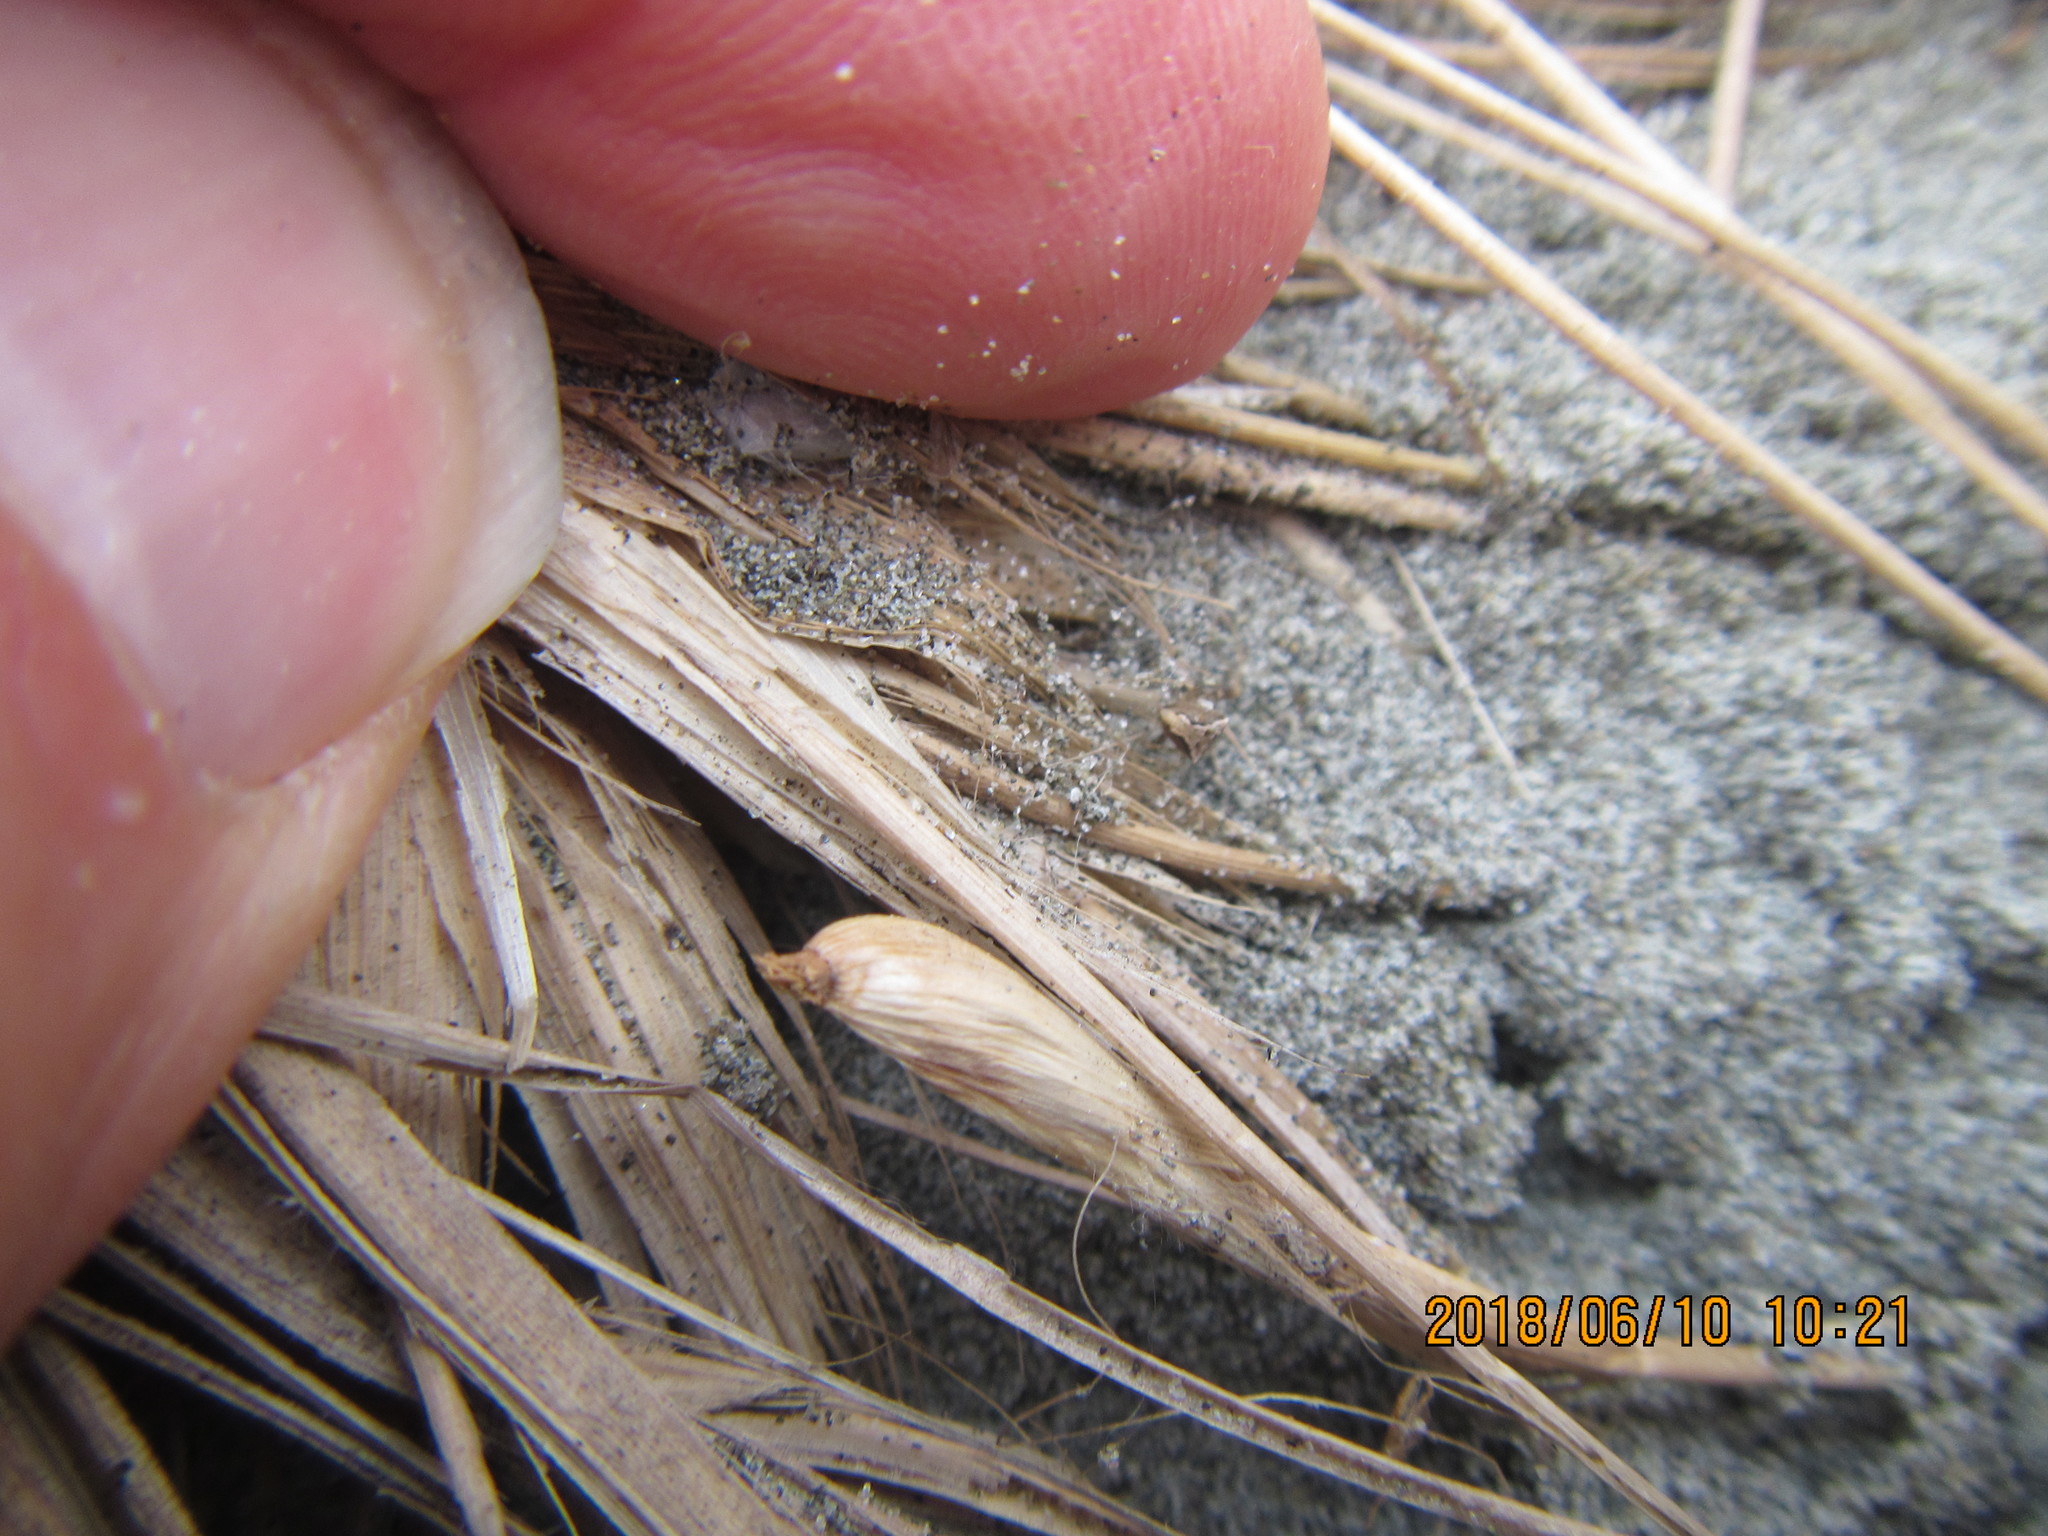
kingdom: Animalia
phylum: Arthropoda
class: Arachnida
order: Araneae
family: Mimetidae
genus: Australomimetus
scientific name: Australomimetus hartleyensis
